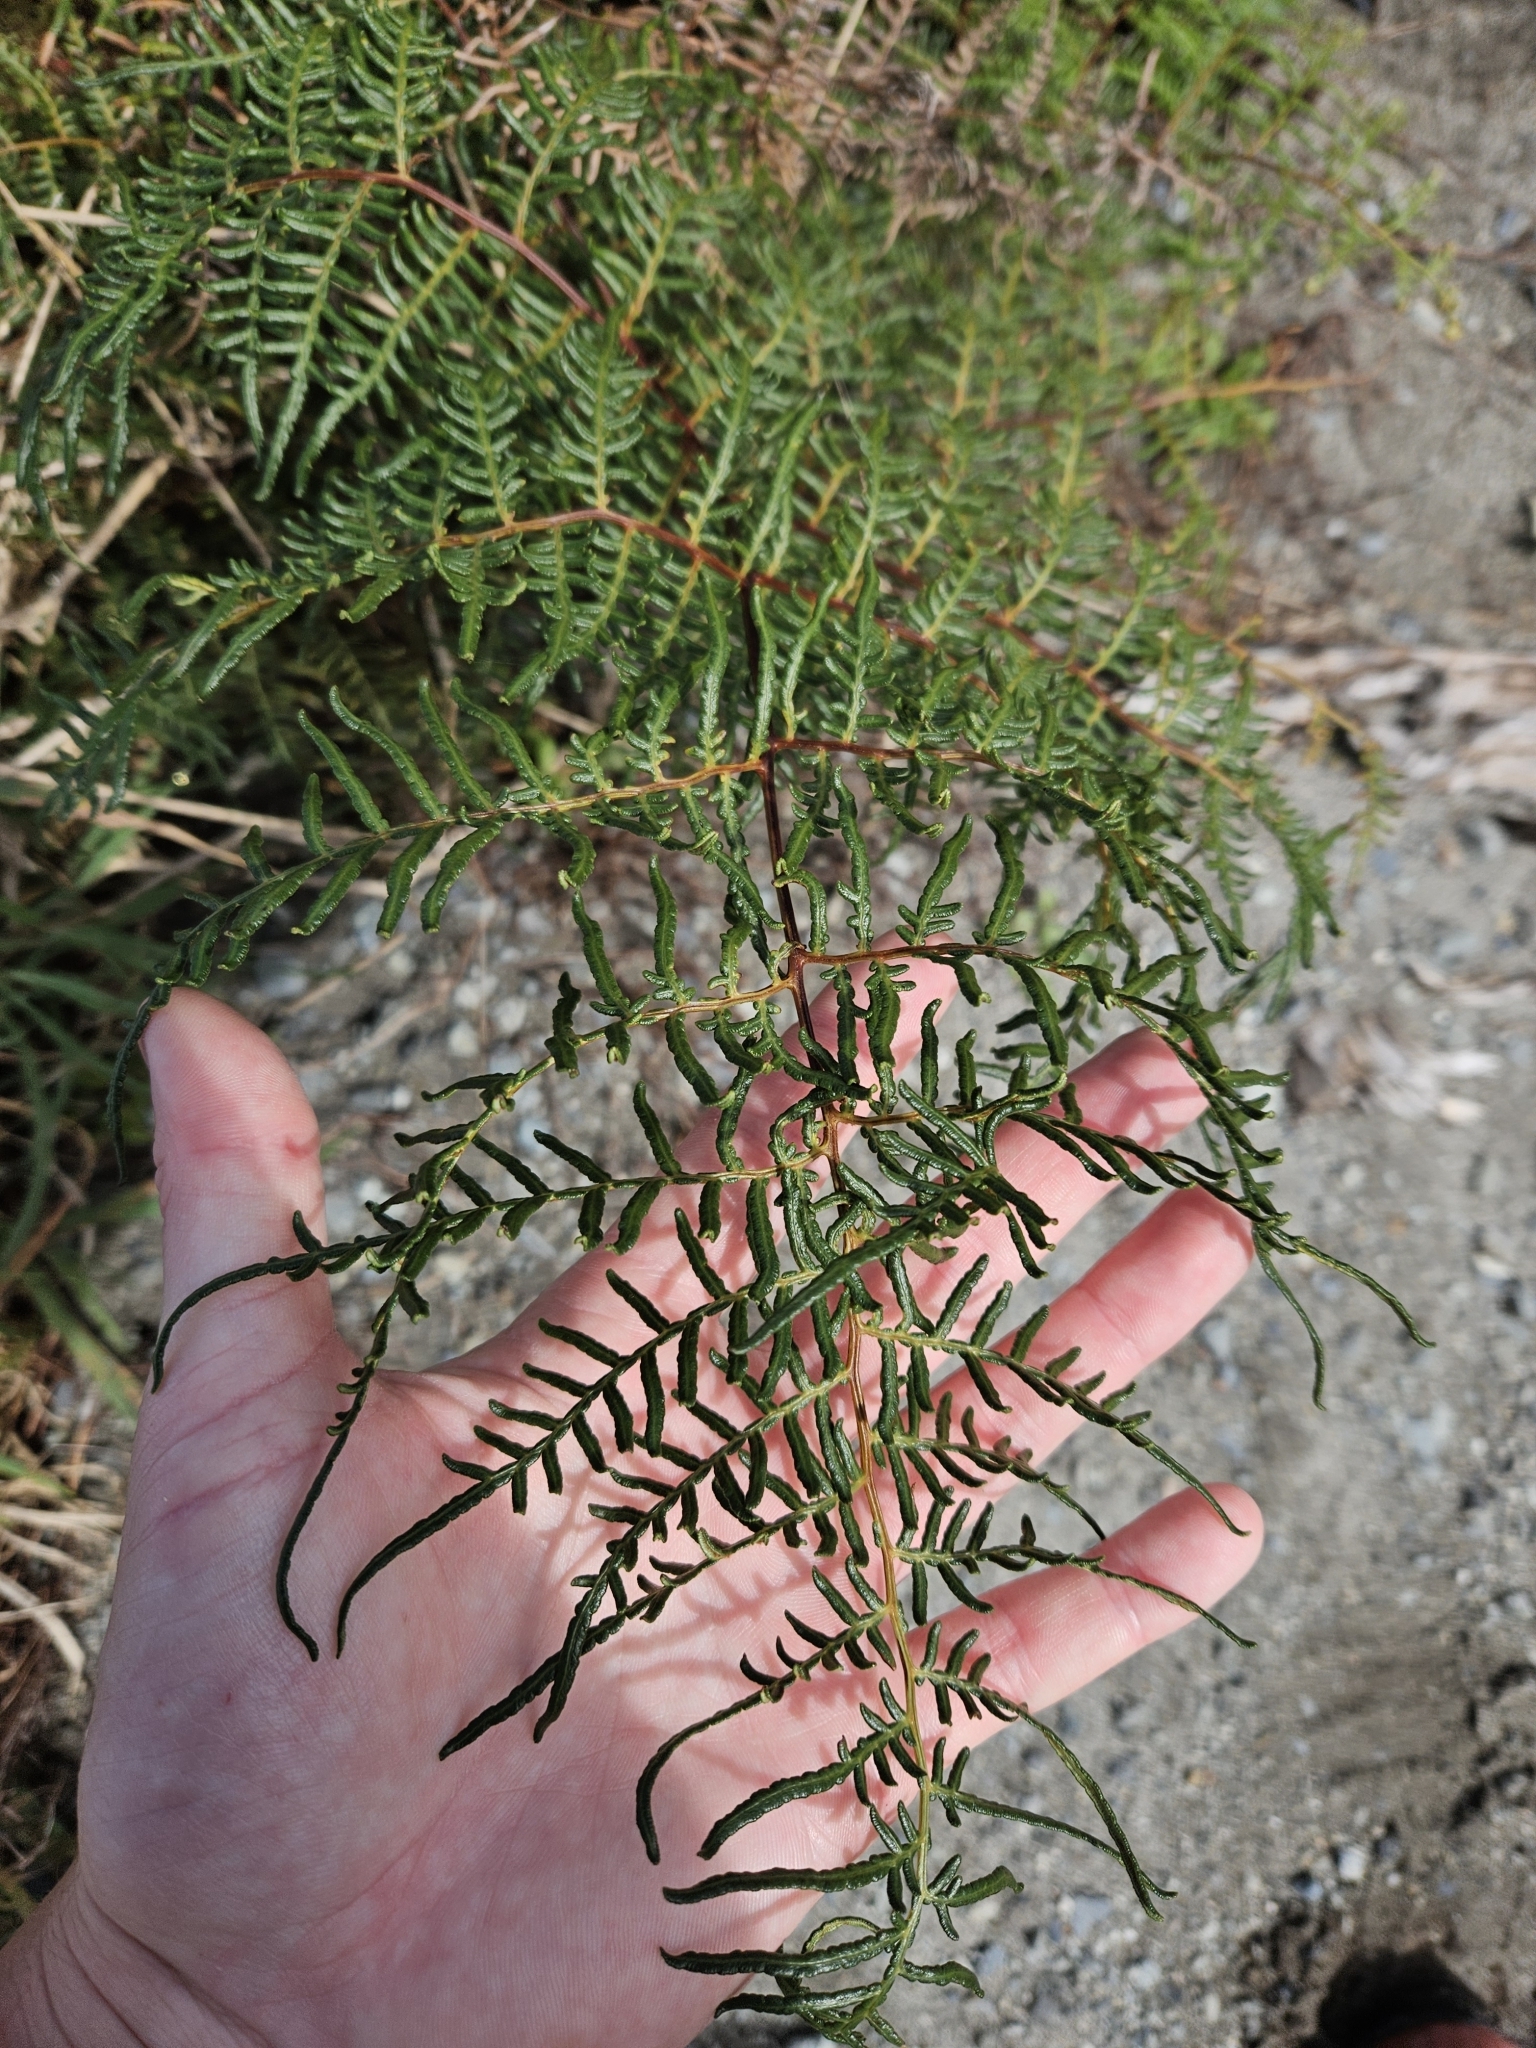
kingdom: Plantae
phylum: Tracheophyta
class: Polypodiopsida
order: Polypodiales
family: Dennstaedtiaceae
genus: Pteridium
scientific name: Pteridium esculentum
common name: Bracken fern
